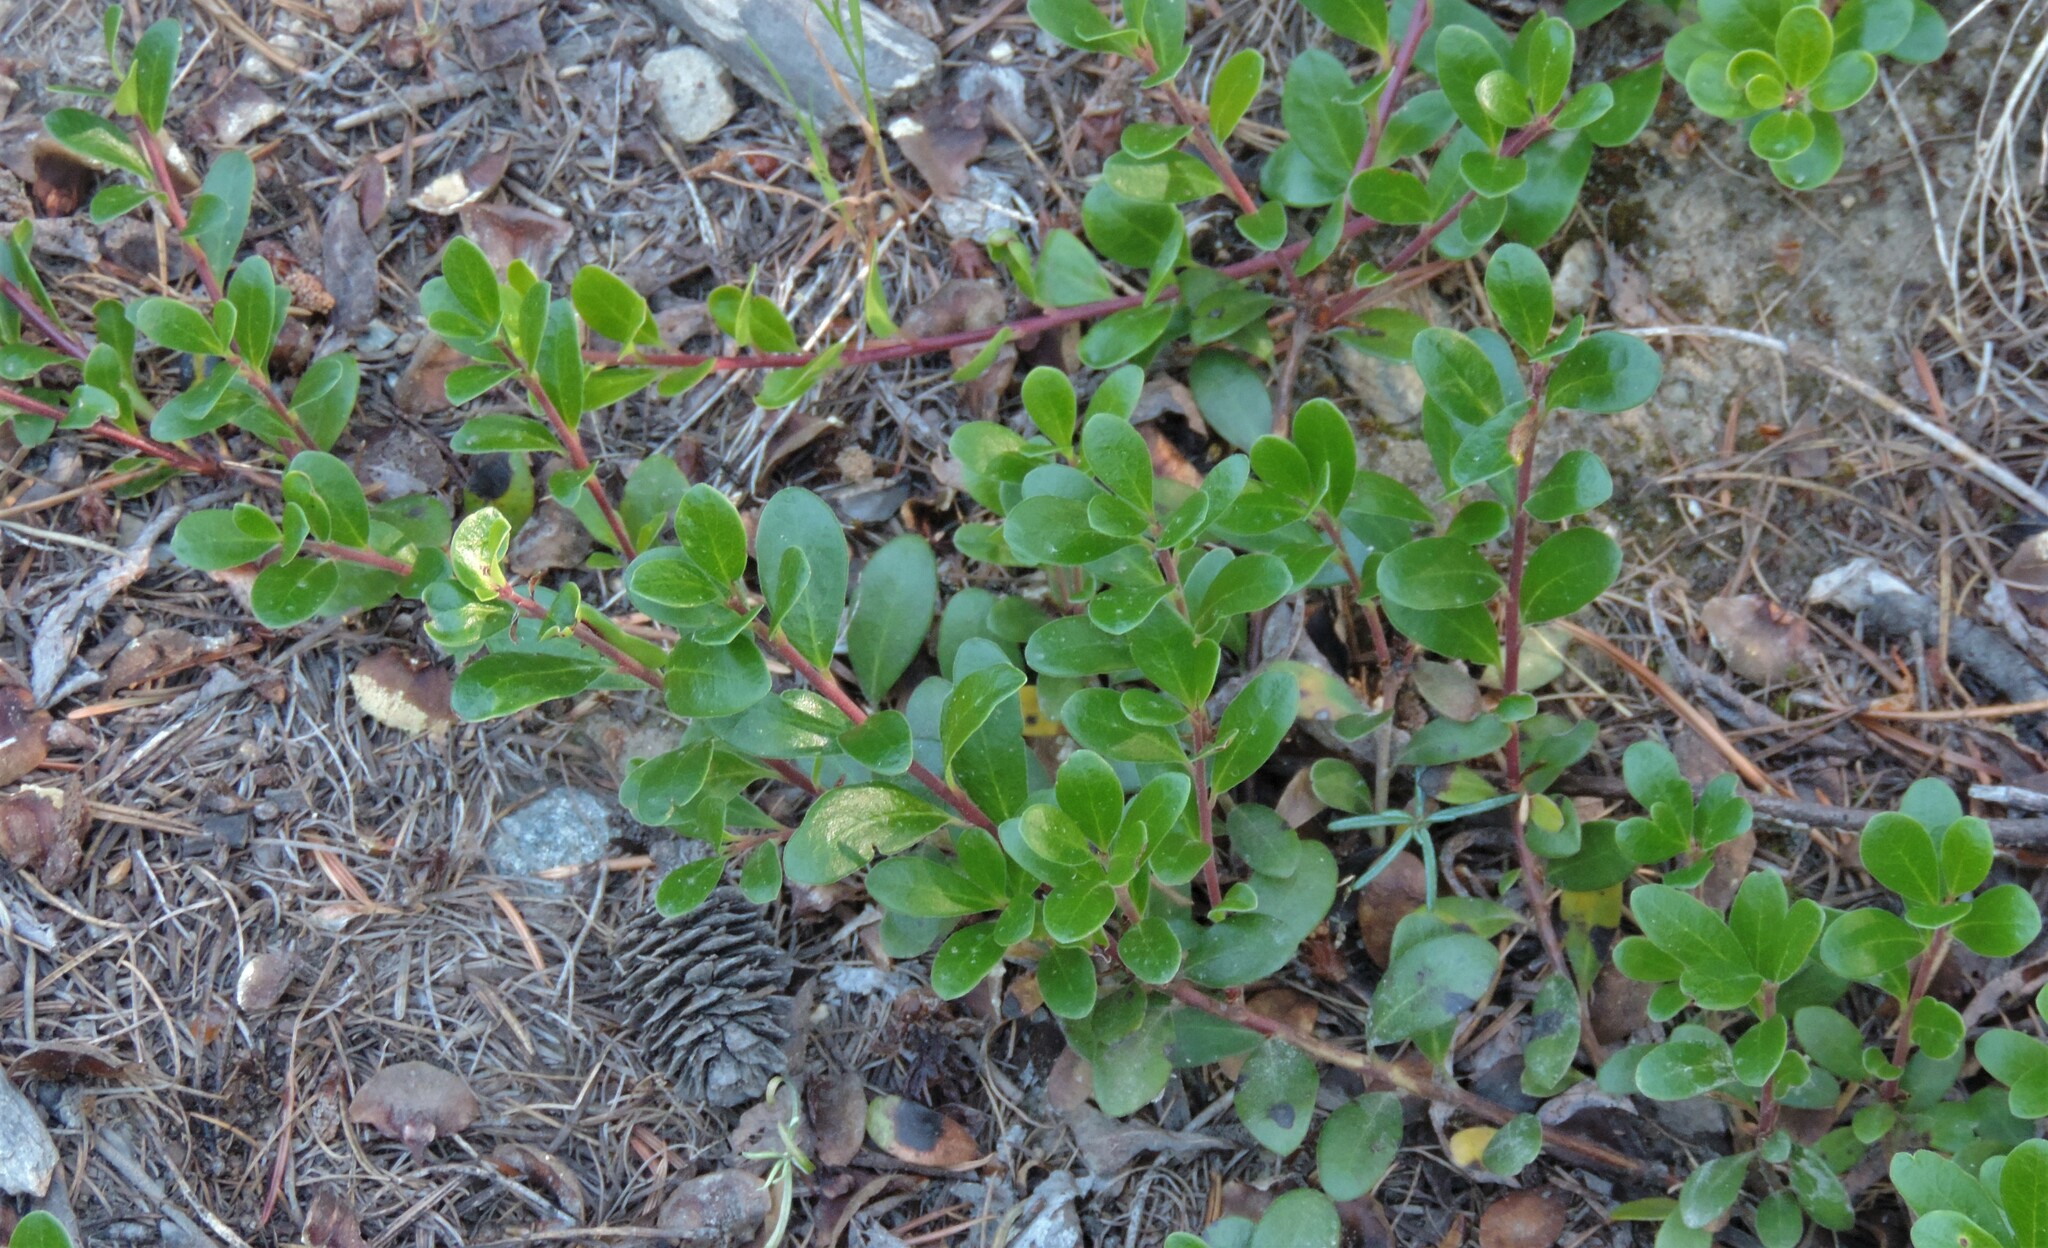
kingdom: Plantae
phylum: Tracheophyta
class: Magnoliopsida
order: Ericales
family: Ericaceae
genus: Arctostaphylos
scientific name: Arctostaphylos uva-ursi
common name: Bearberry
